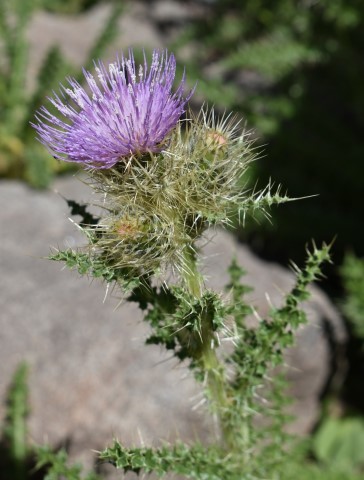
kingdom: Plantae
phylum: Tracheophyta
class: Magnoliopsida
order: Asterales
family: Asteraceae
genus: Cirsium
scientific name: Cirsium eatonii
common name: Eaton's thistle
